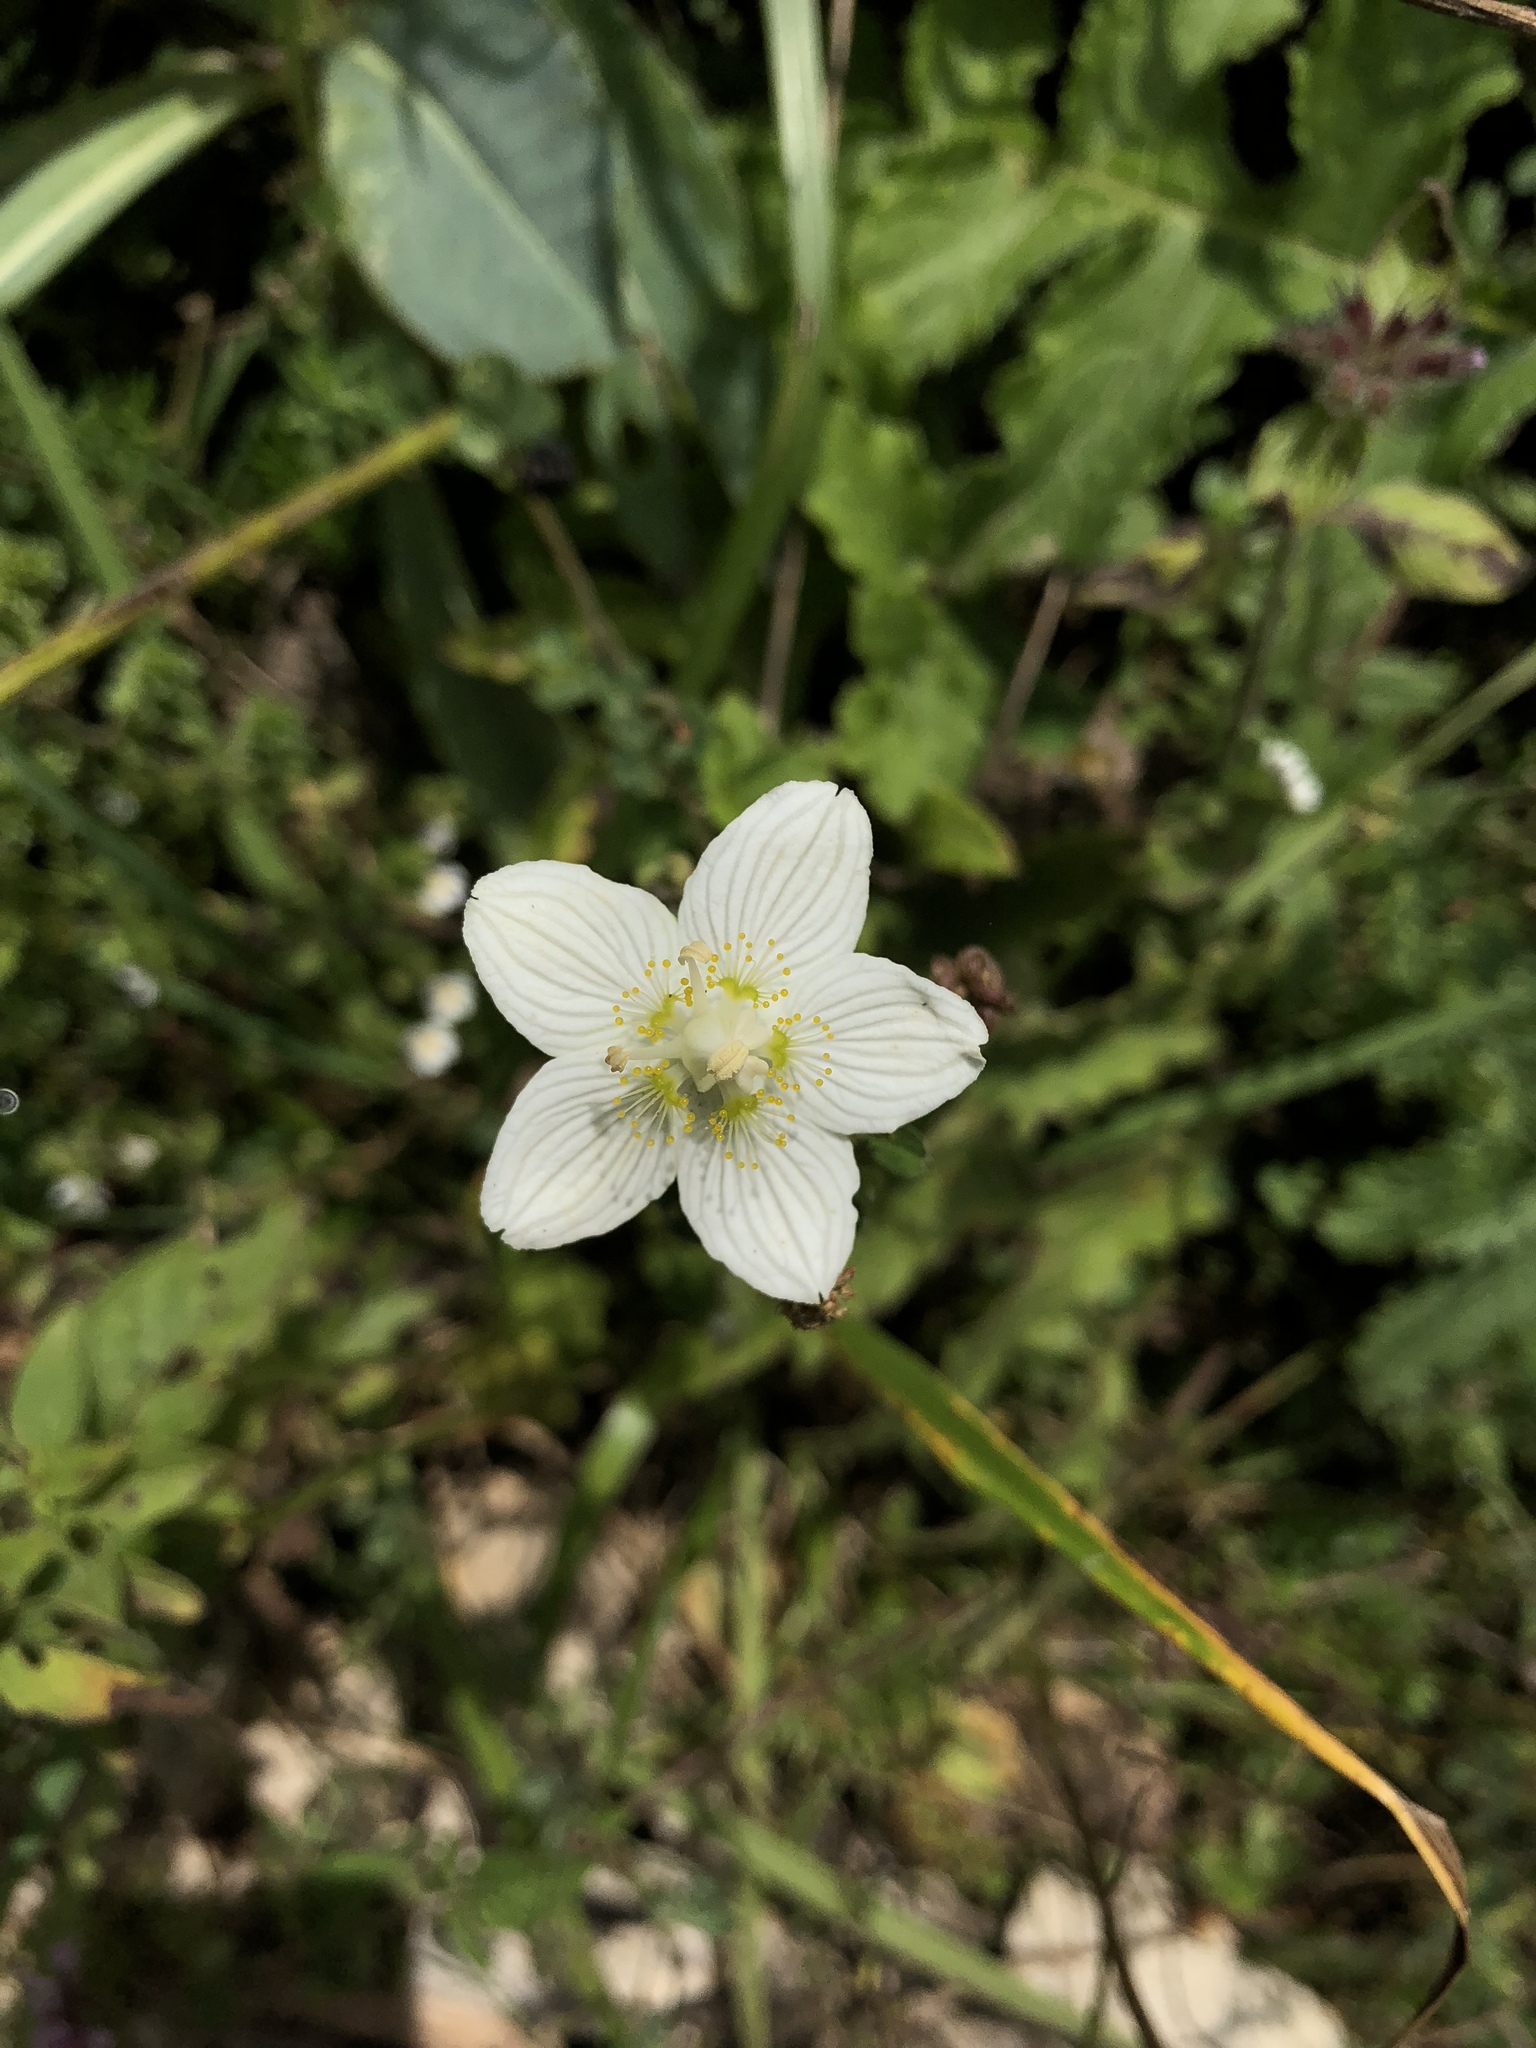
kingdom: Plantae
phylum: Tracheophyta
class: Magnoliopsida
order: Celastrales
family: Parnassiaceae
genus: Parnassia
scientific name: Parnassia palustris
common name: Grass-of-parnassus
